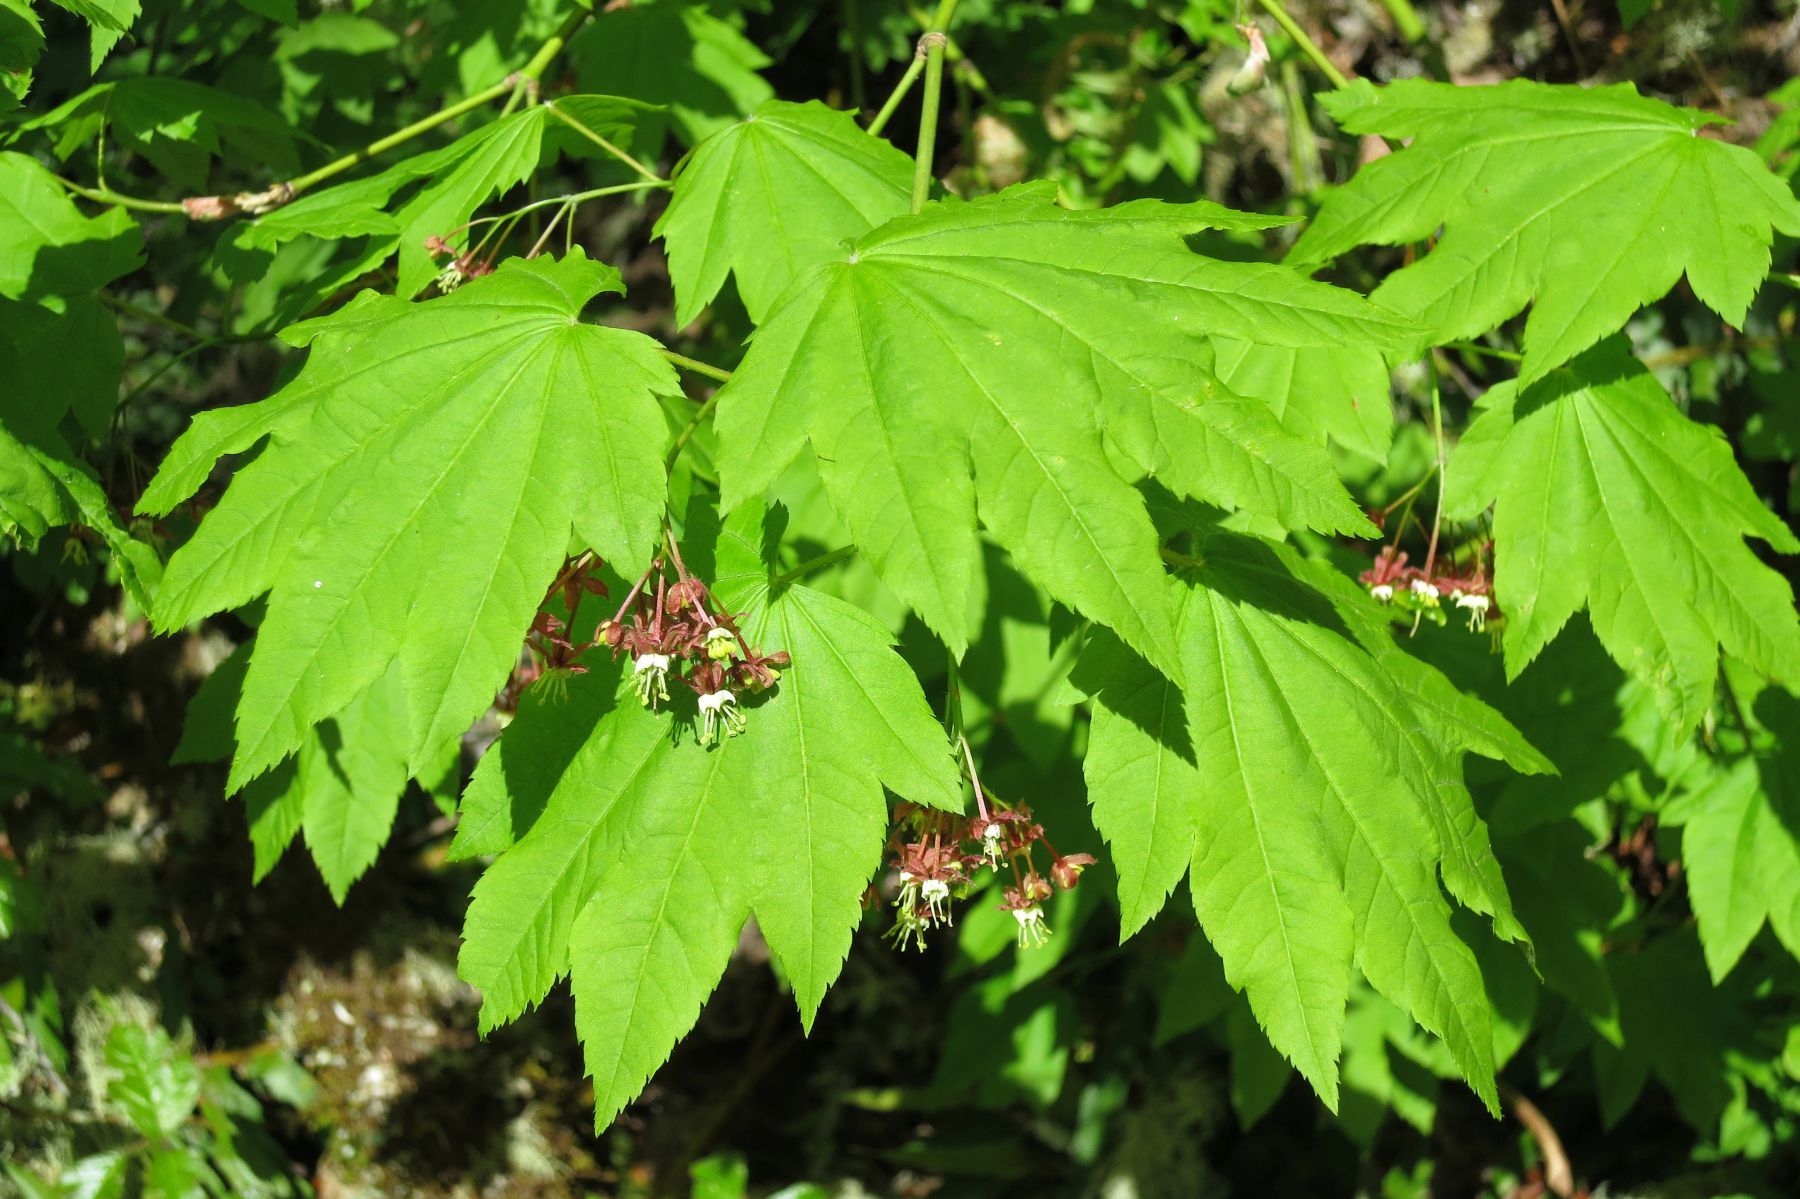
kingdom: Plantae
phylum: Tracheophyta
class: Magnoliopsida
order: Sapindales
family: Sapindaceae
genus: Acer
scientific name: Acer circinatum
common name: Vine maple
